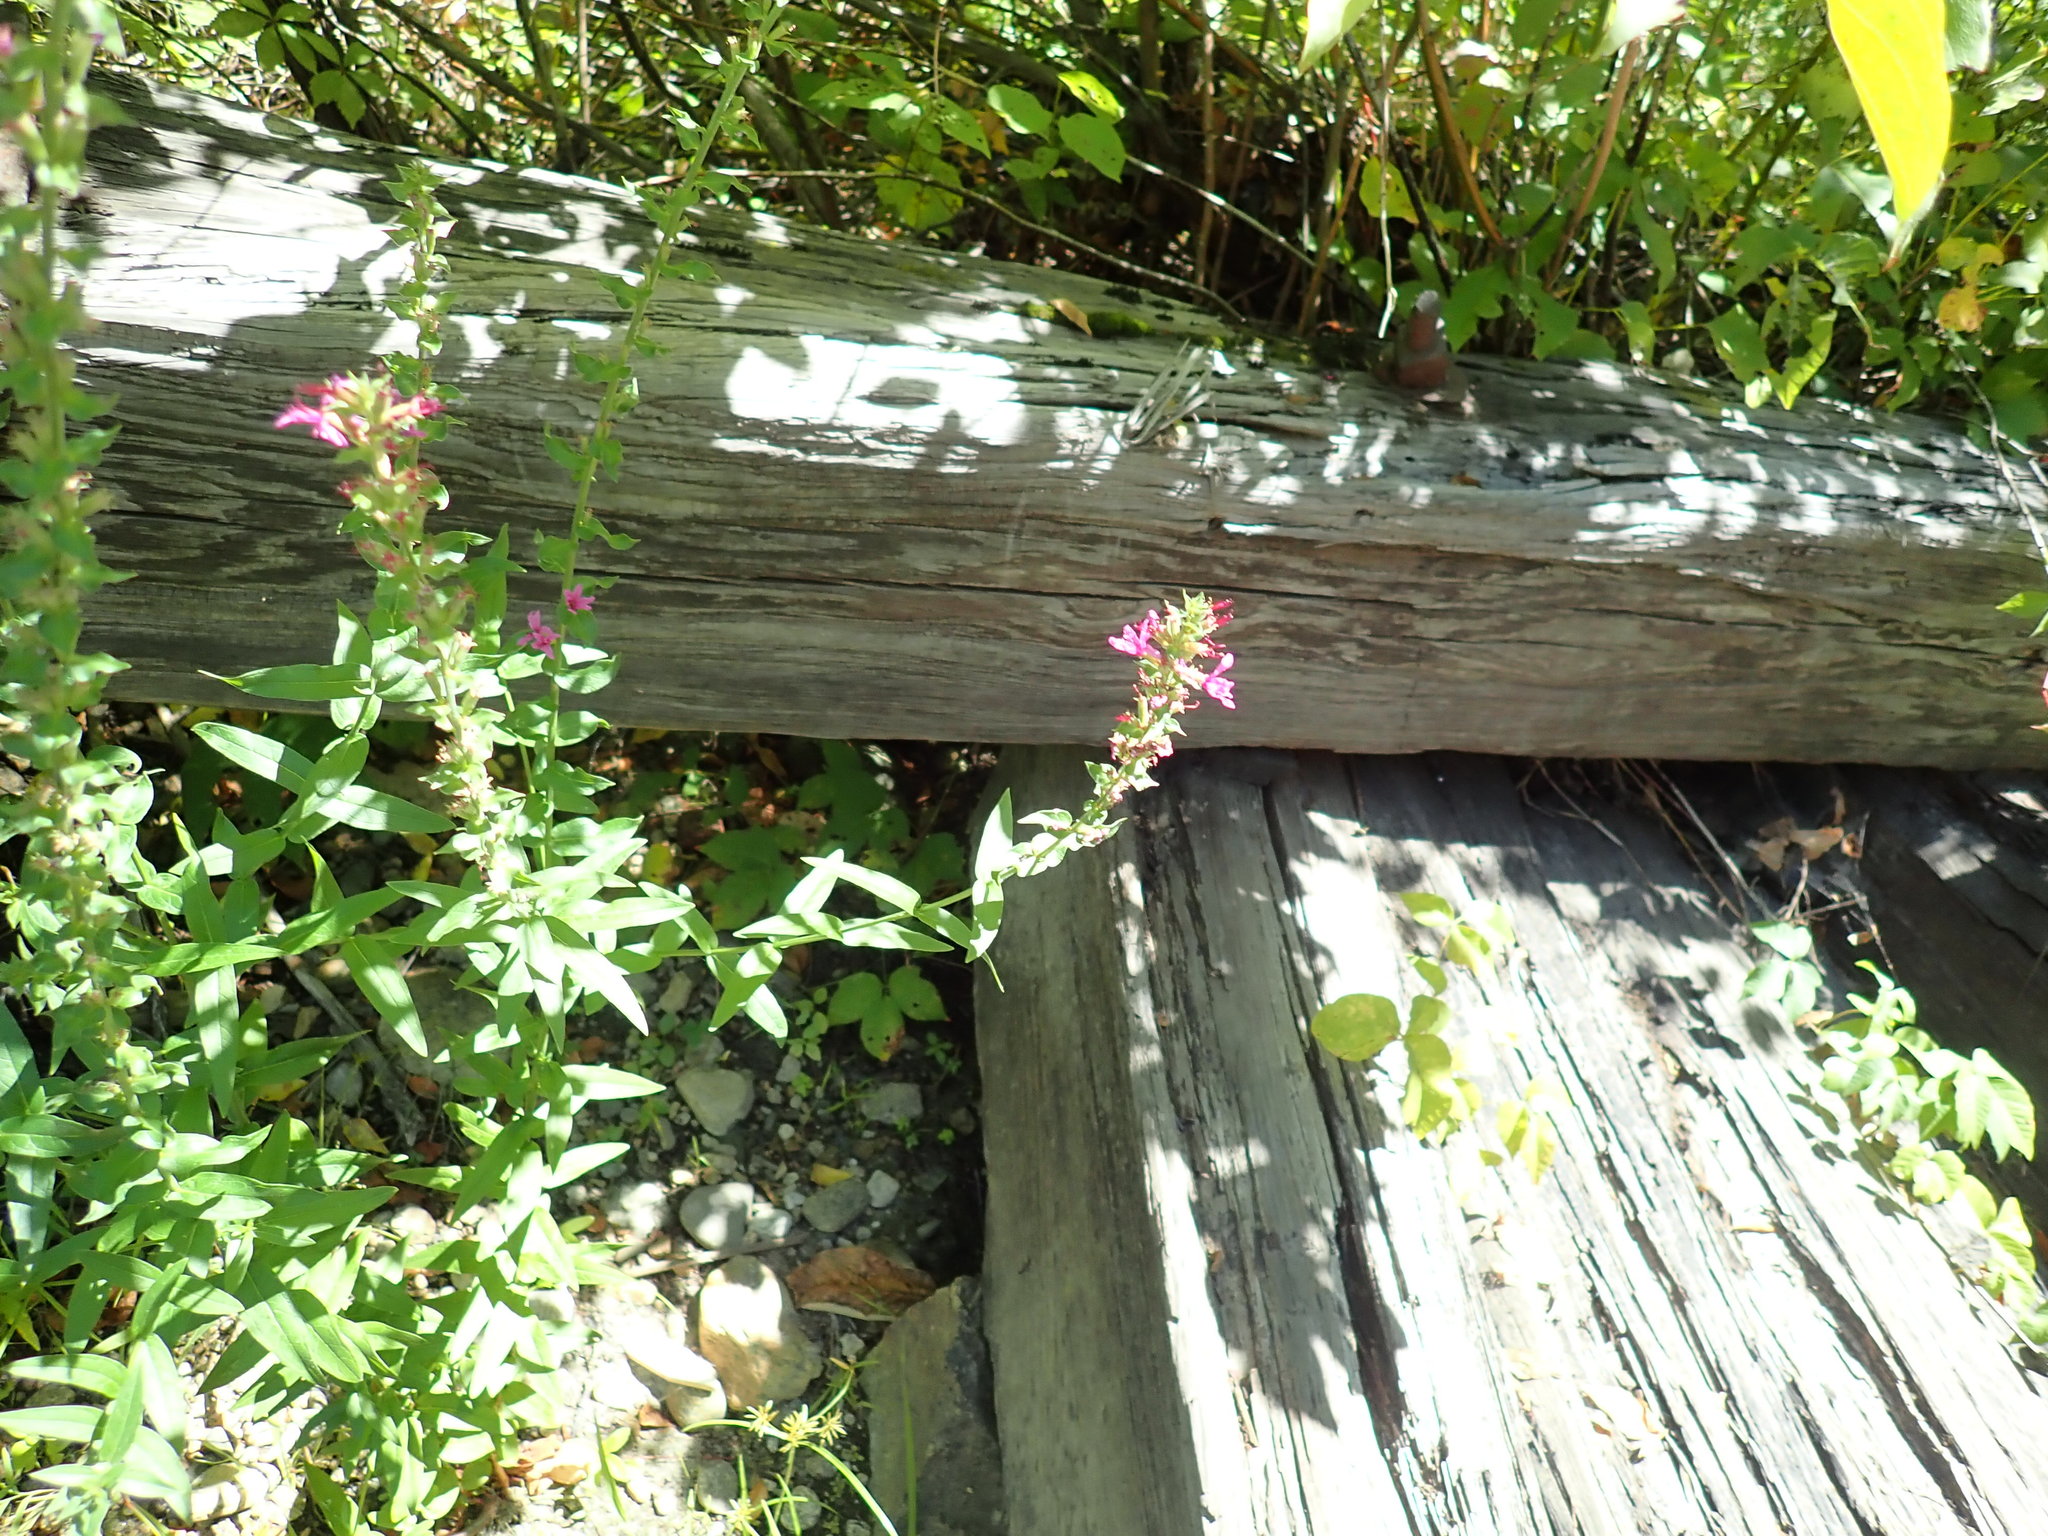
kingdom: Plantae
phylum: Tracheophyta
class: Magnoliopsida
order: Myrtales
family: Lythraceae
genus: Lythrum
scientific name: Lythrum salicaria
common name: Purple loosestrife
